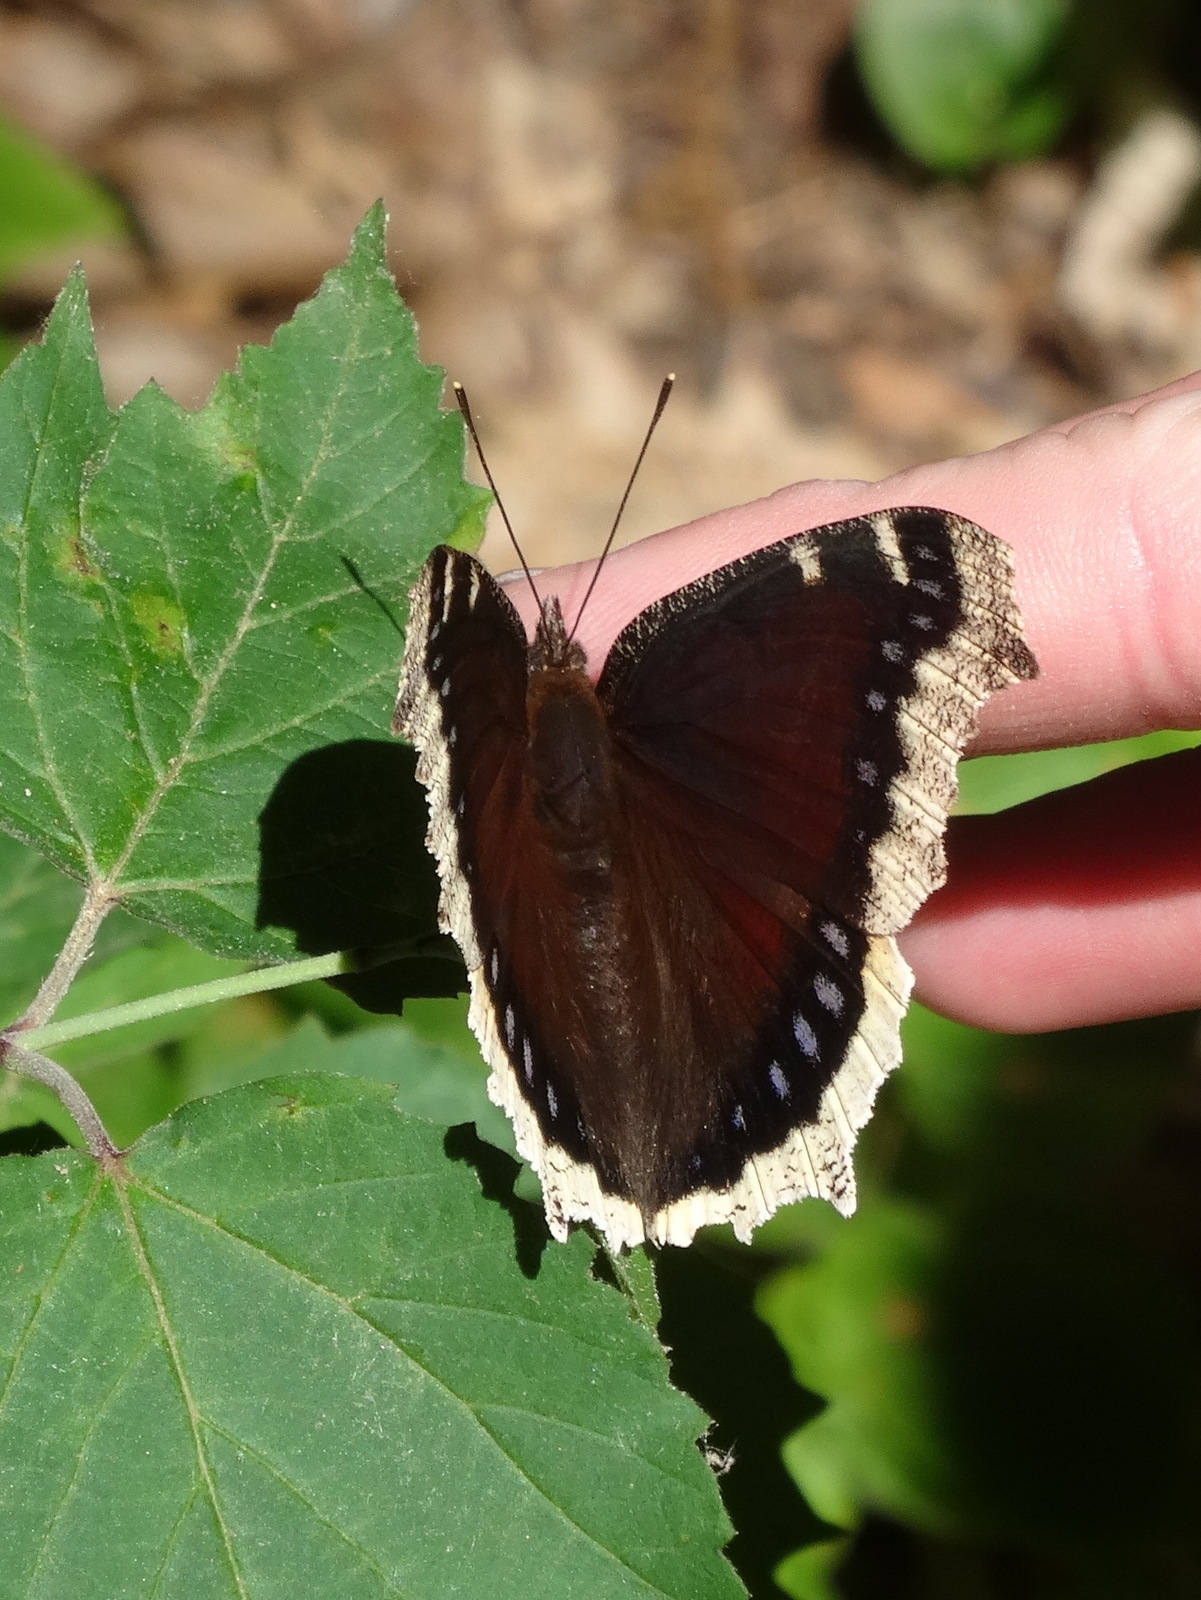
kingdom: Animalia
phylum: Arthropoda
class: Insecta
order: Lepidoptera
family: Nymphalidae
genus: Nymphalis
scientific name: Nymphalis antiopa
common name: Camberwell beauty
